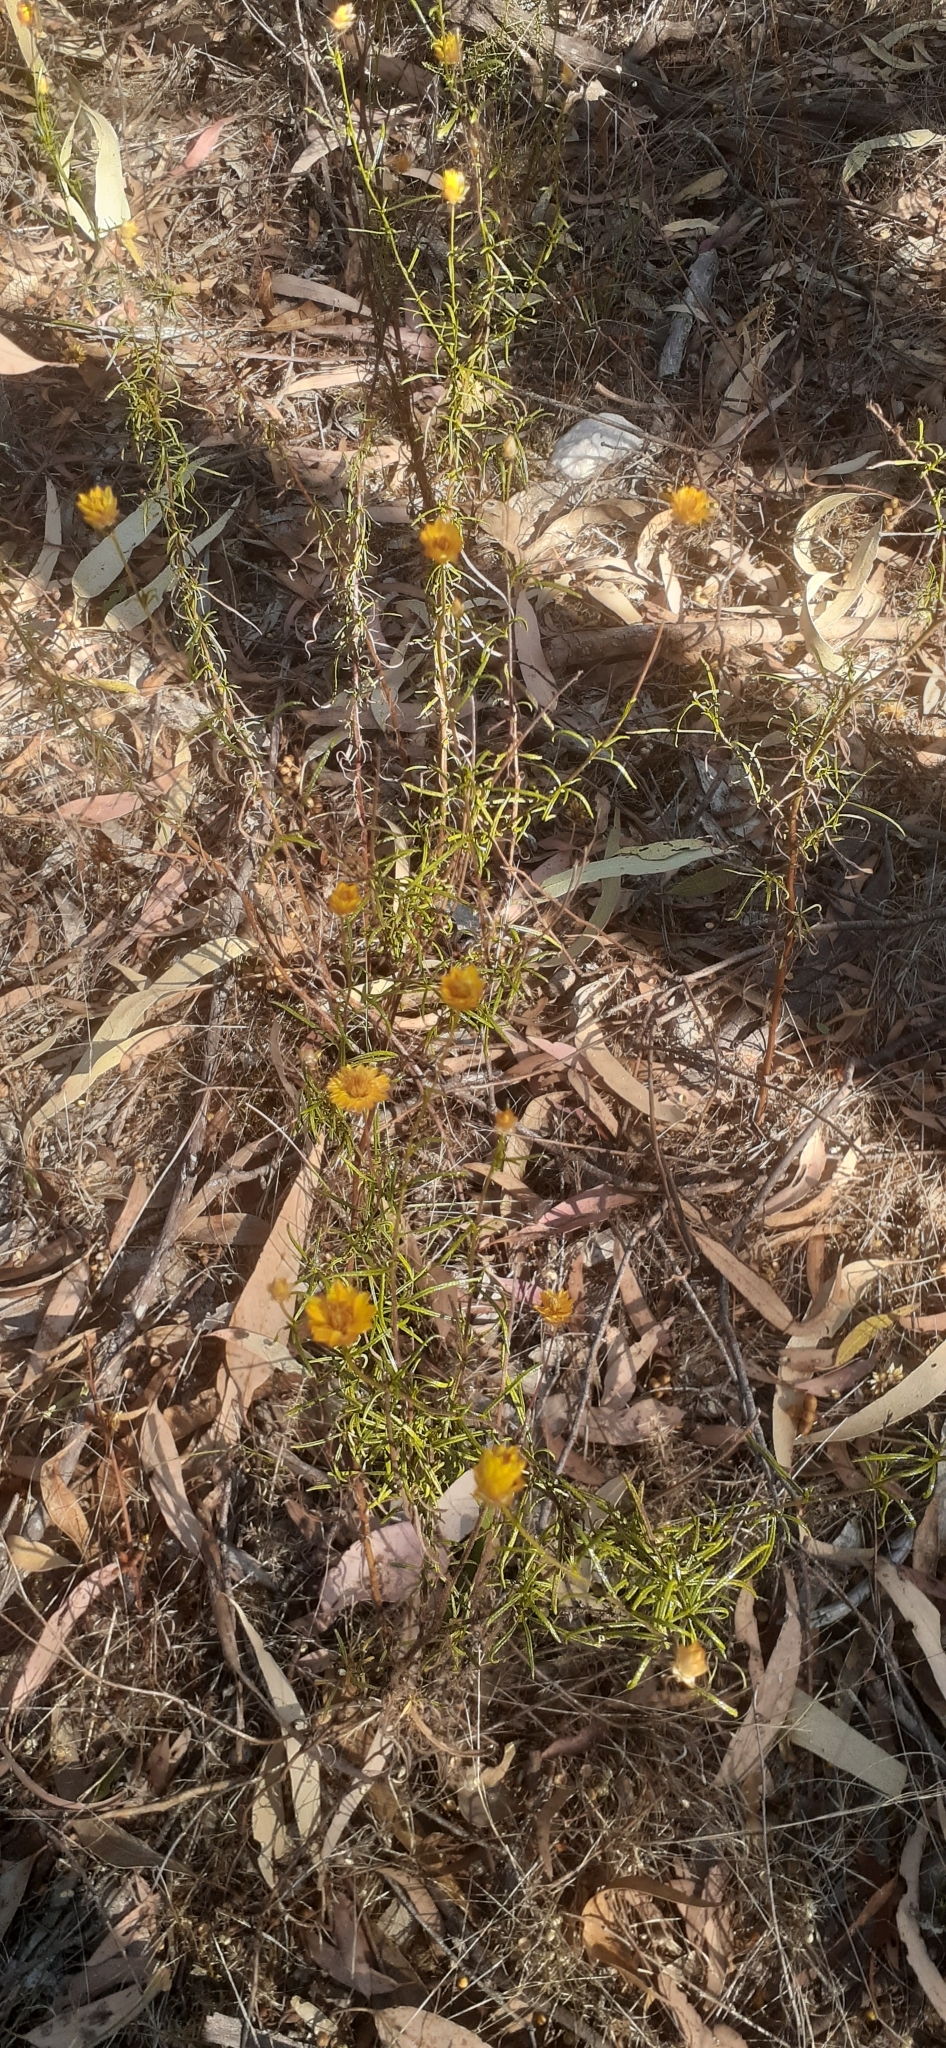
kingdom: Plantae
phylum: Tracheophyta
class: Magnoliopsida
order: Asterales
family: Asteraceae
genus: Xerochrysum
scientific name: Xerochrysum viscosum
